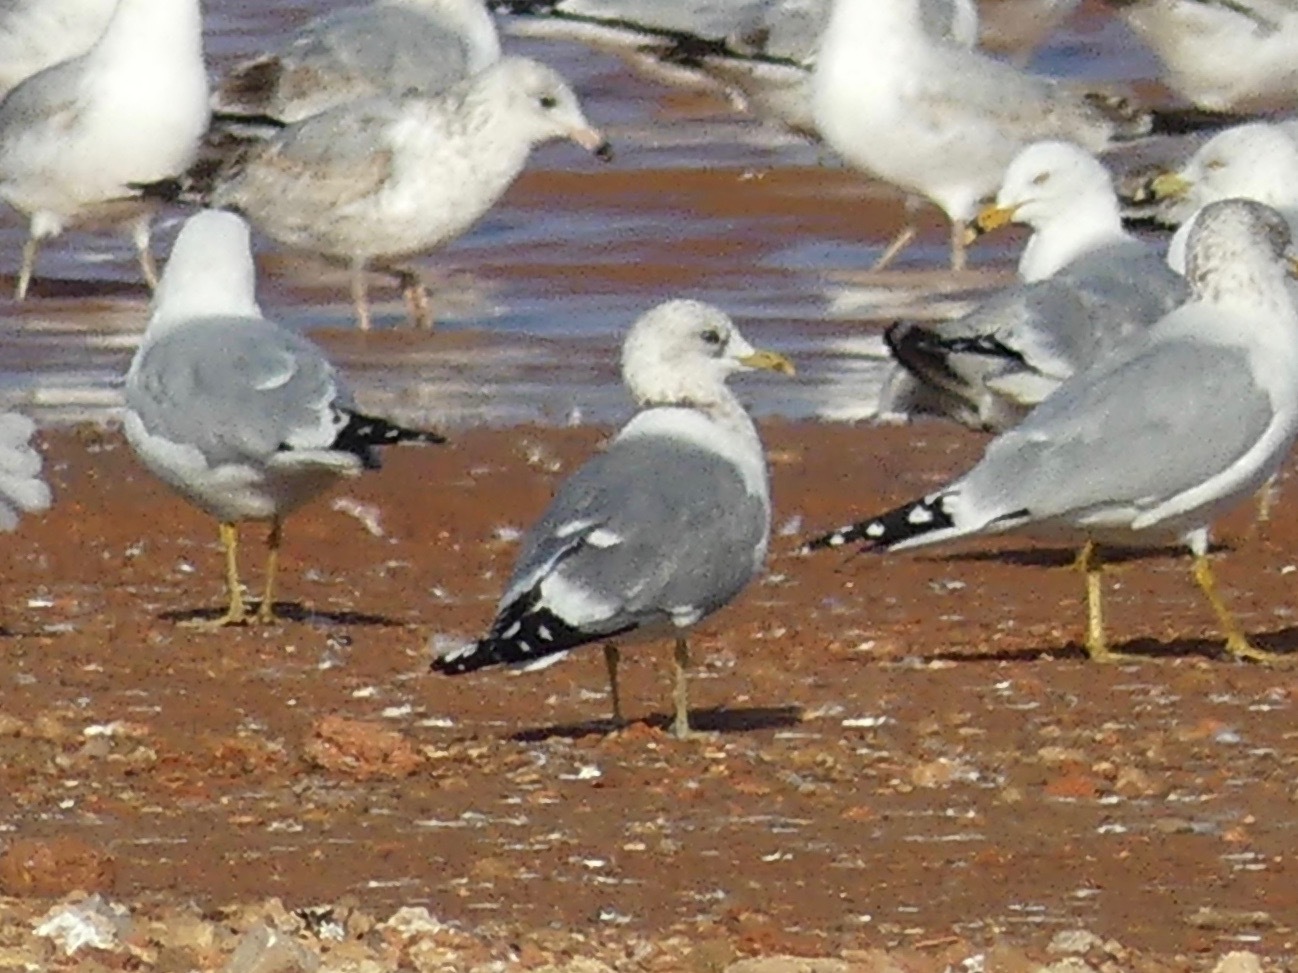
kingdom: Animalia
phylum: Chordata
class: Aves
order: Charadriiformes
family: Laridae
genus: Larus
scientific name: Larus brachyrhynchus
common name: Short-billed gull
